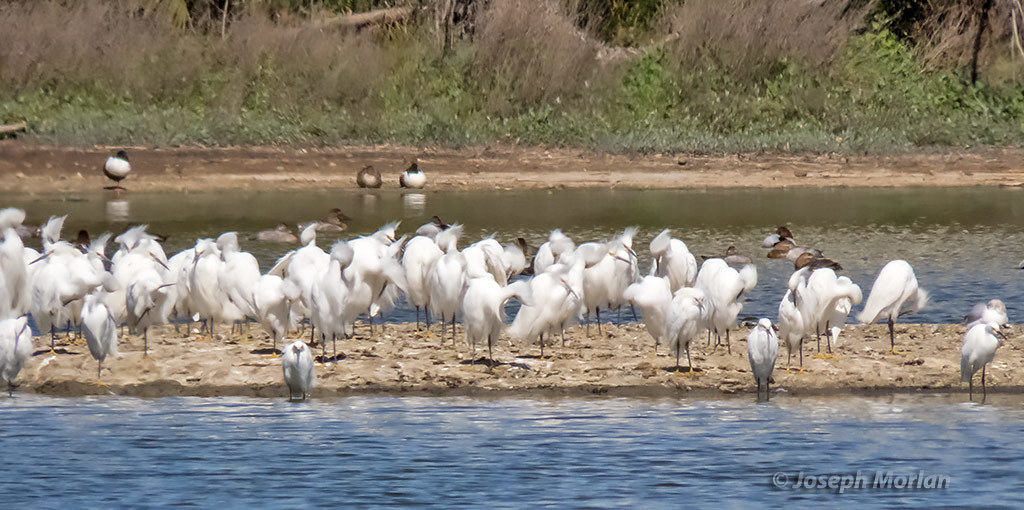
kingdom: Animalia
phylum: Chordata
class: Aves
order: Pelecaniformes
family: Ardeidae
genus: Egretta
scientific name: Egretta thula
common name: Snowy egret
